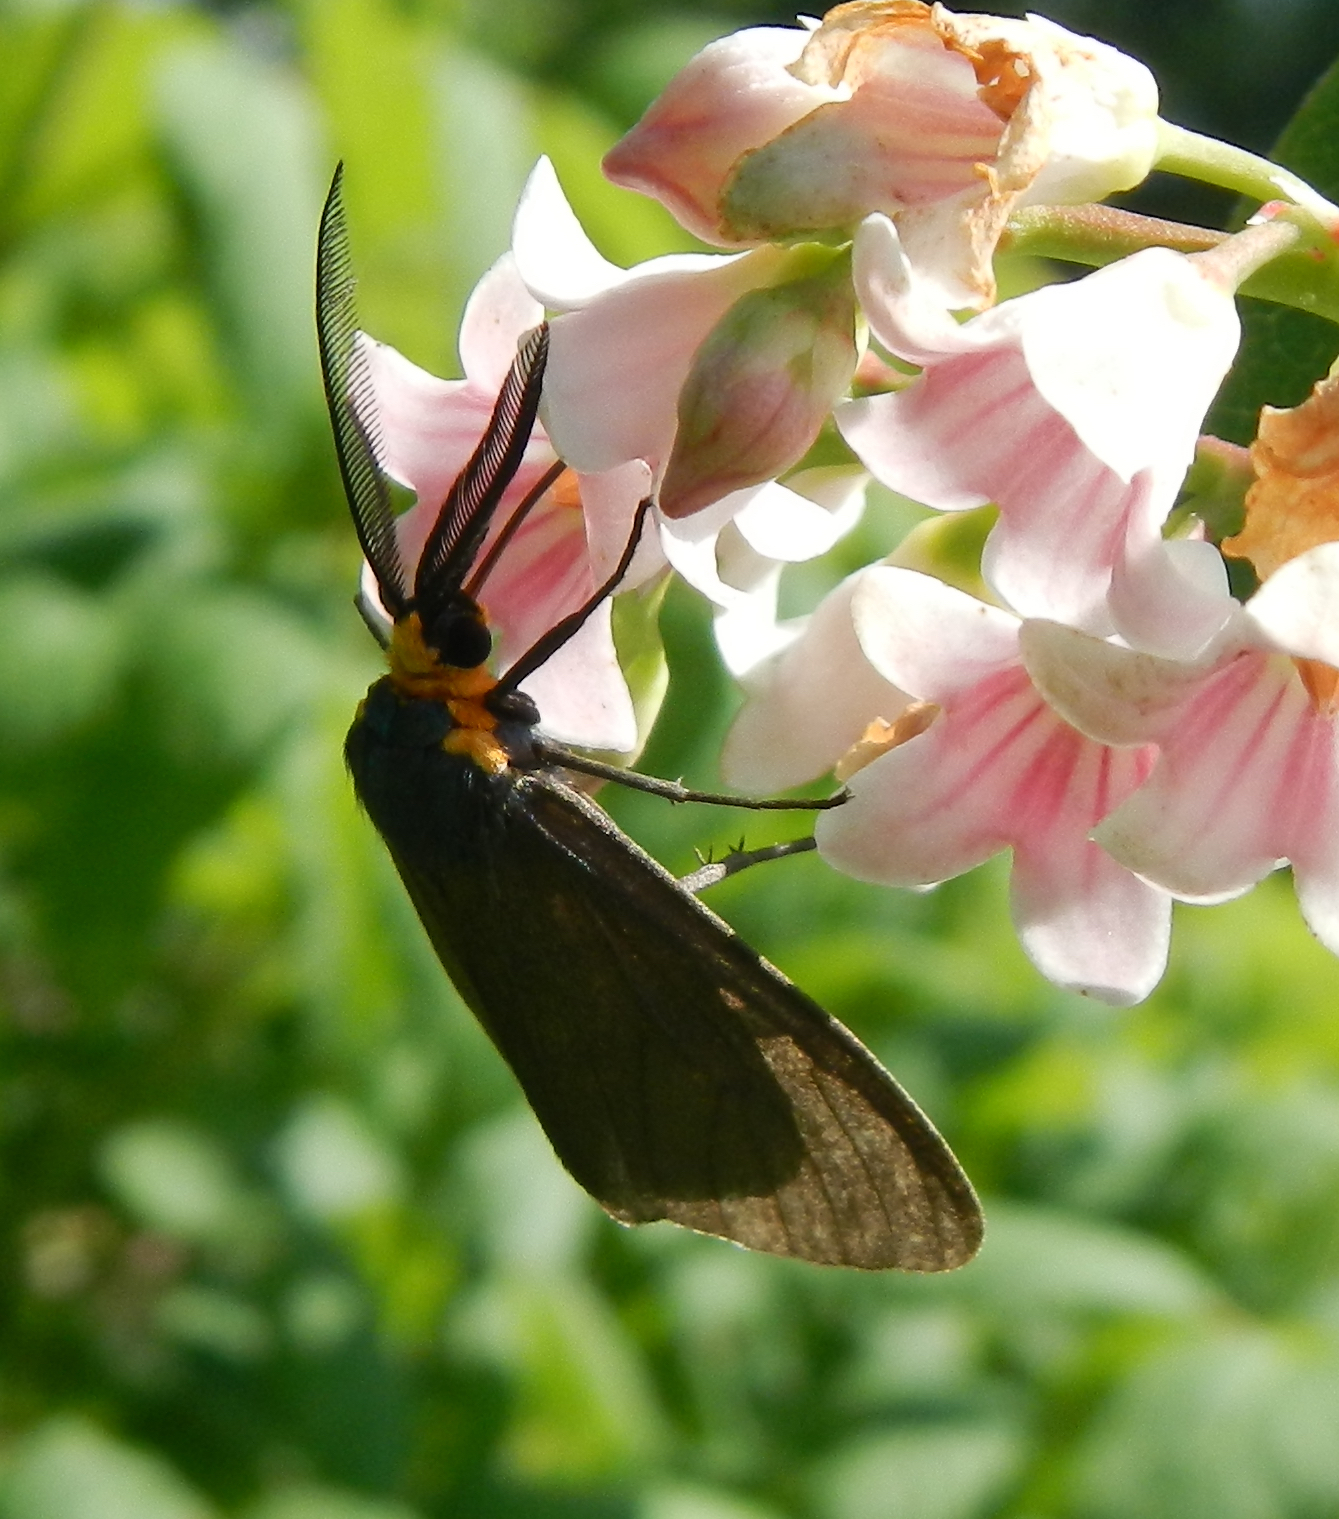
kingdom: Animalia
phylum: Arthropoda
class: Insecta
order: Lepidoptera
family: Erebidae
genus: Ctenucha
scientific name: Ctenucha virginica
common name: Virginia ctenucha moth
